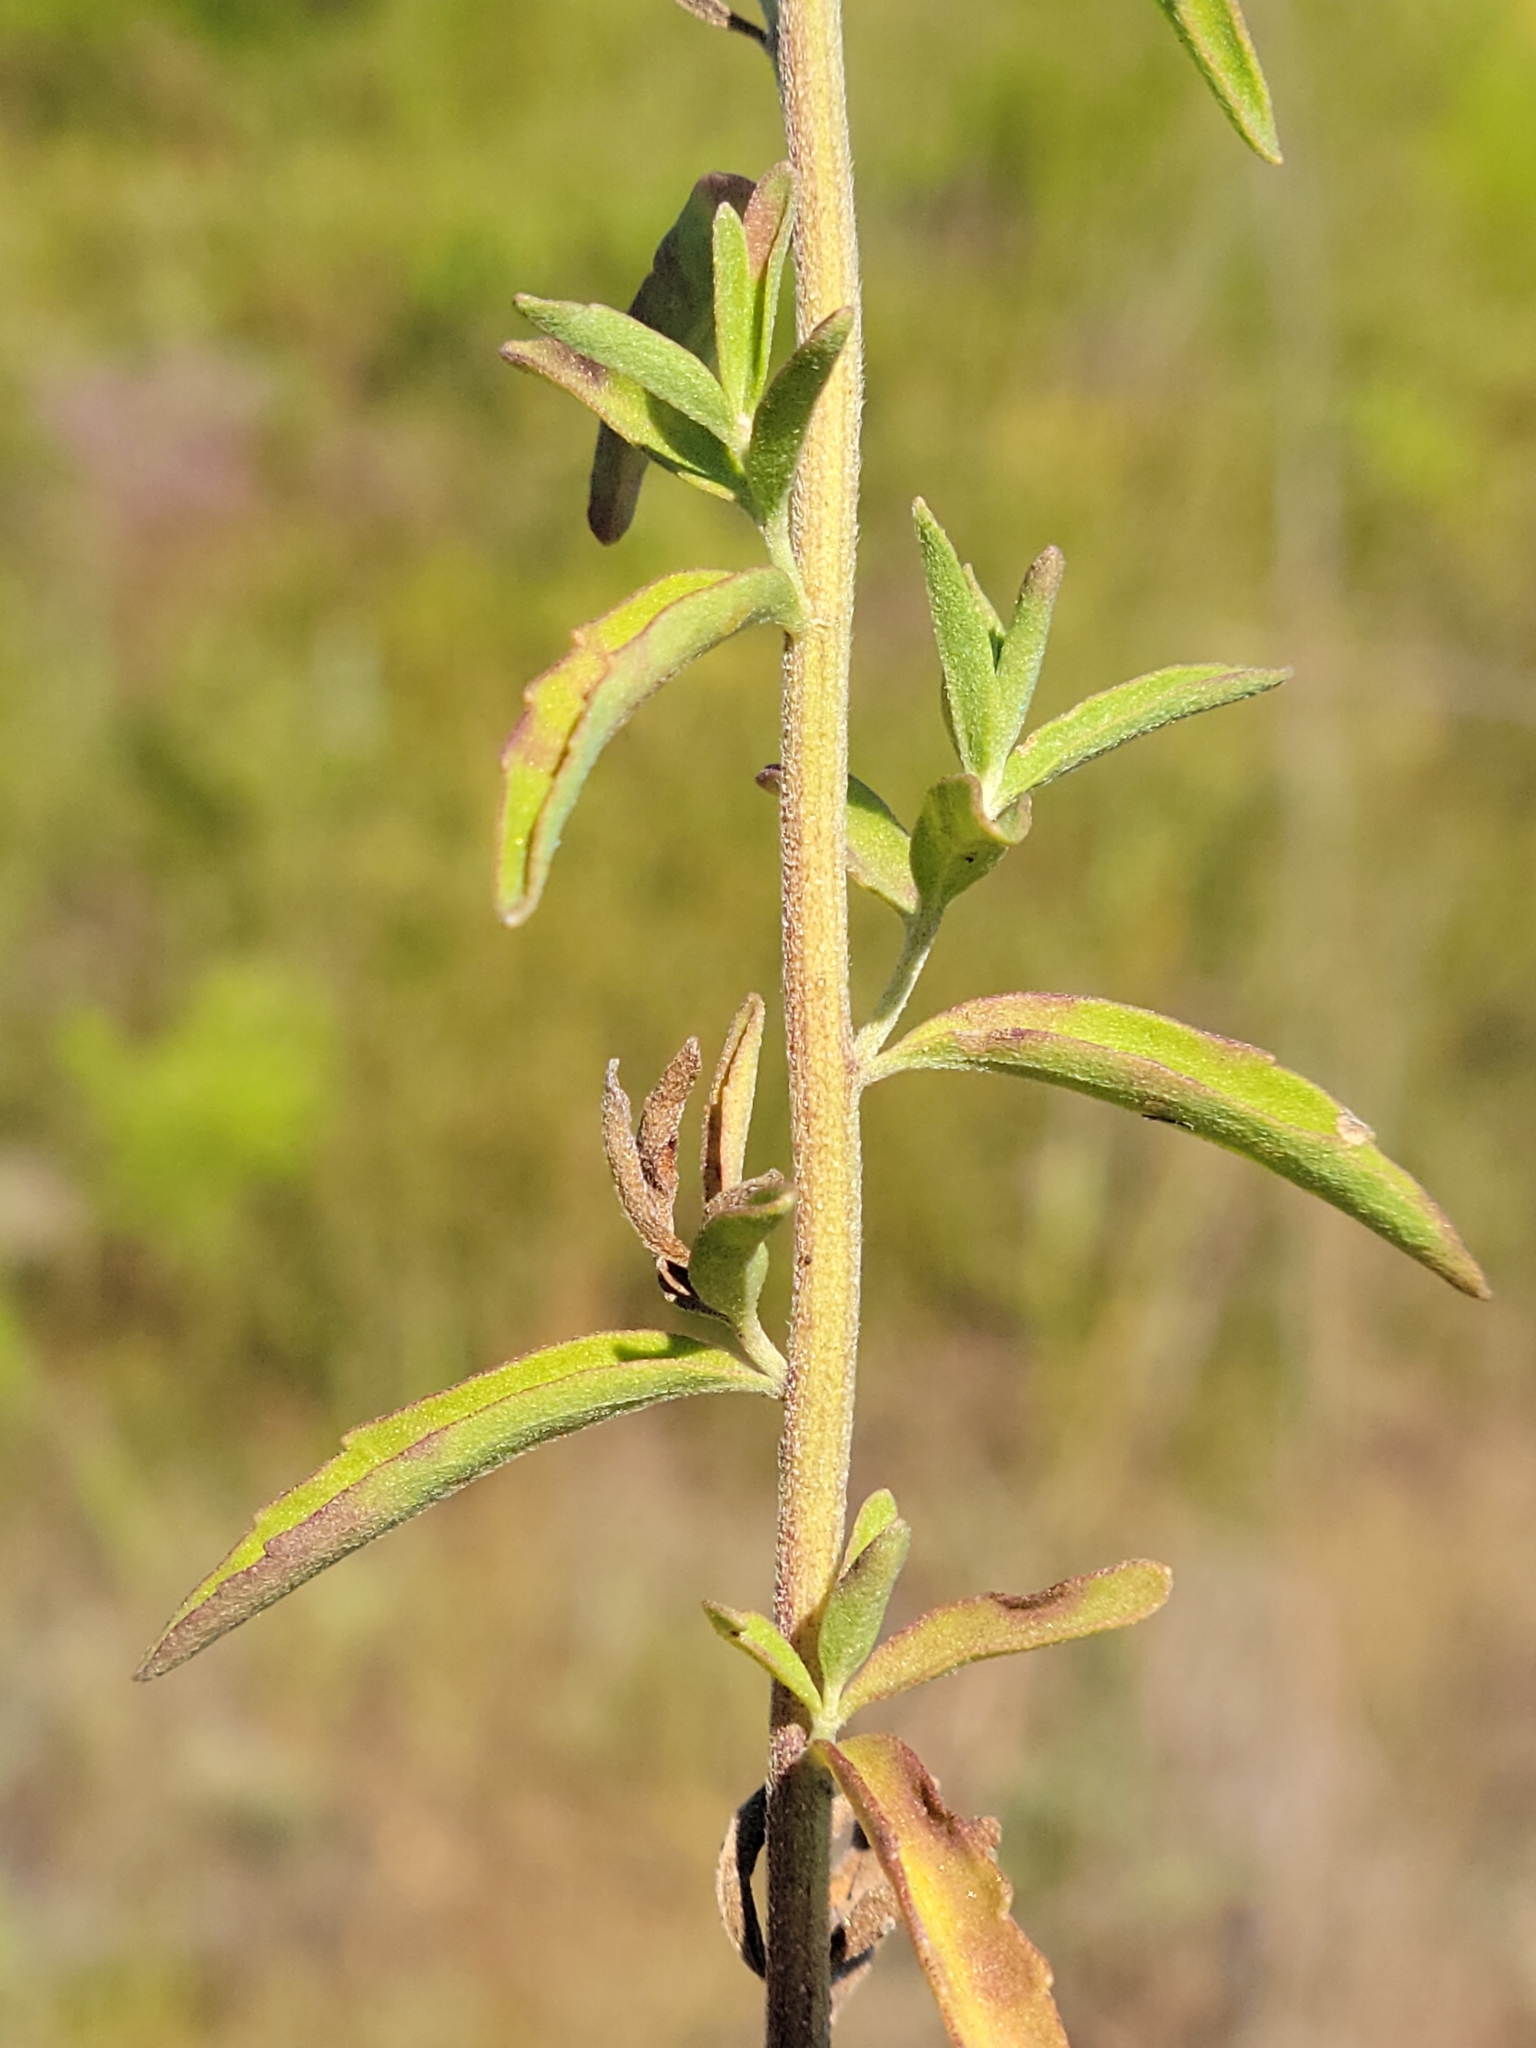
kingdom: Plantae
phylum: Tracheophyta
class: Magnoliopsida
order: Asterales
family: Asteraceae
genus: Eupatorium
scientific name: Eupatorium mohrii
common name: Mohr's thoroughwort
